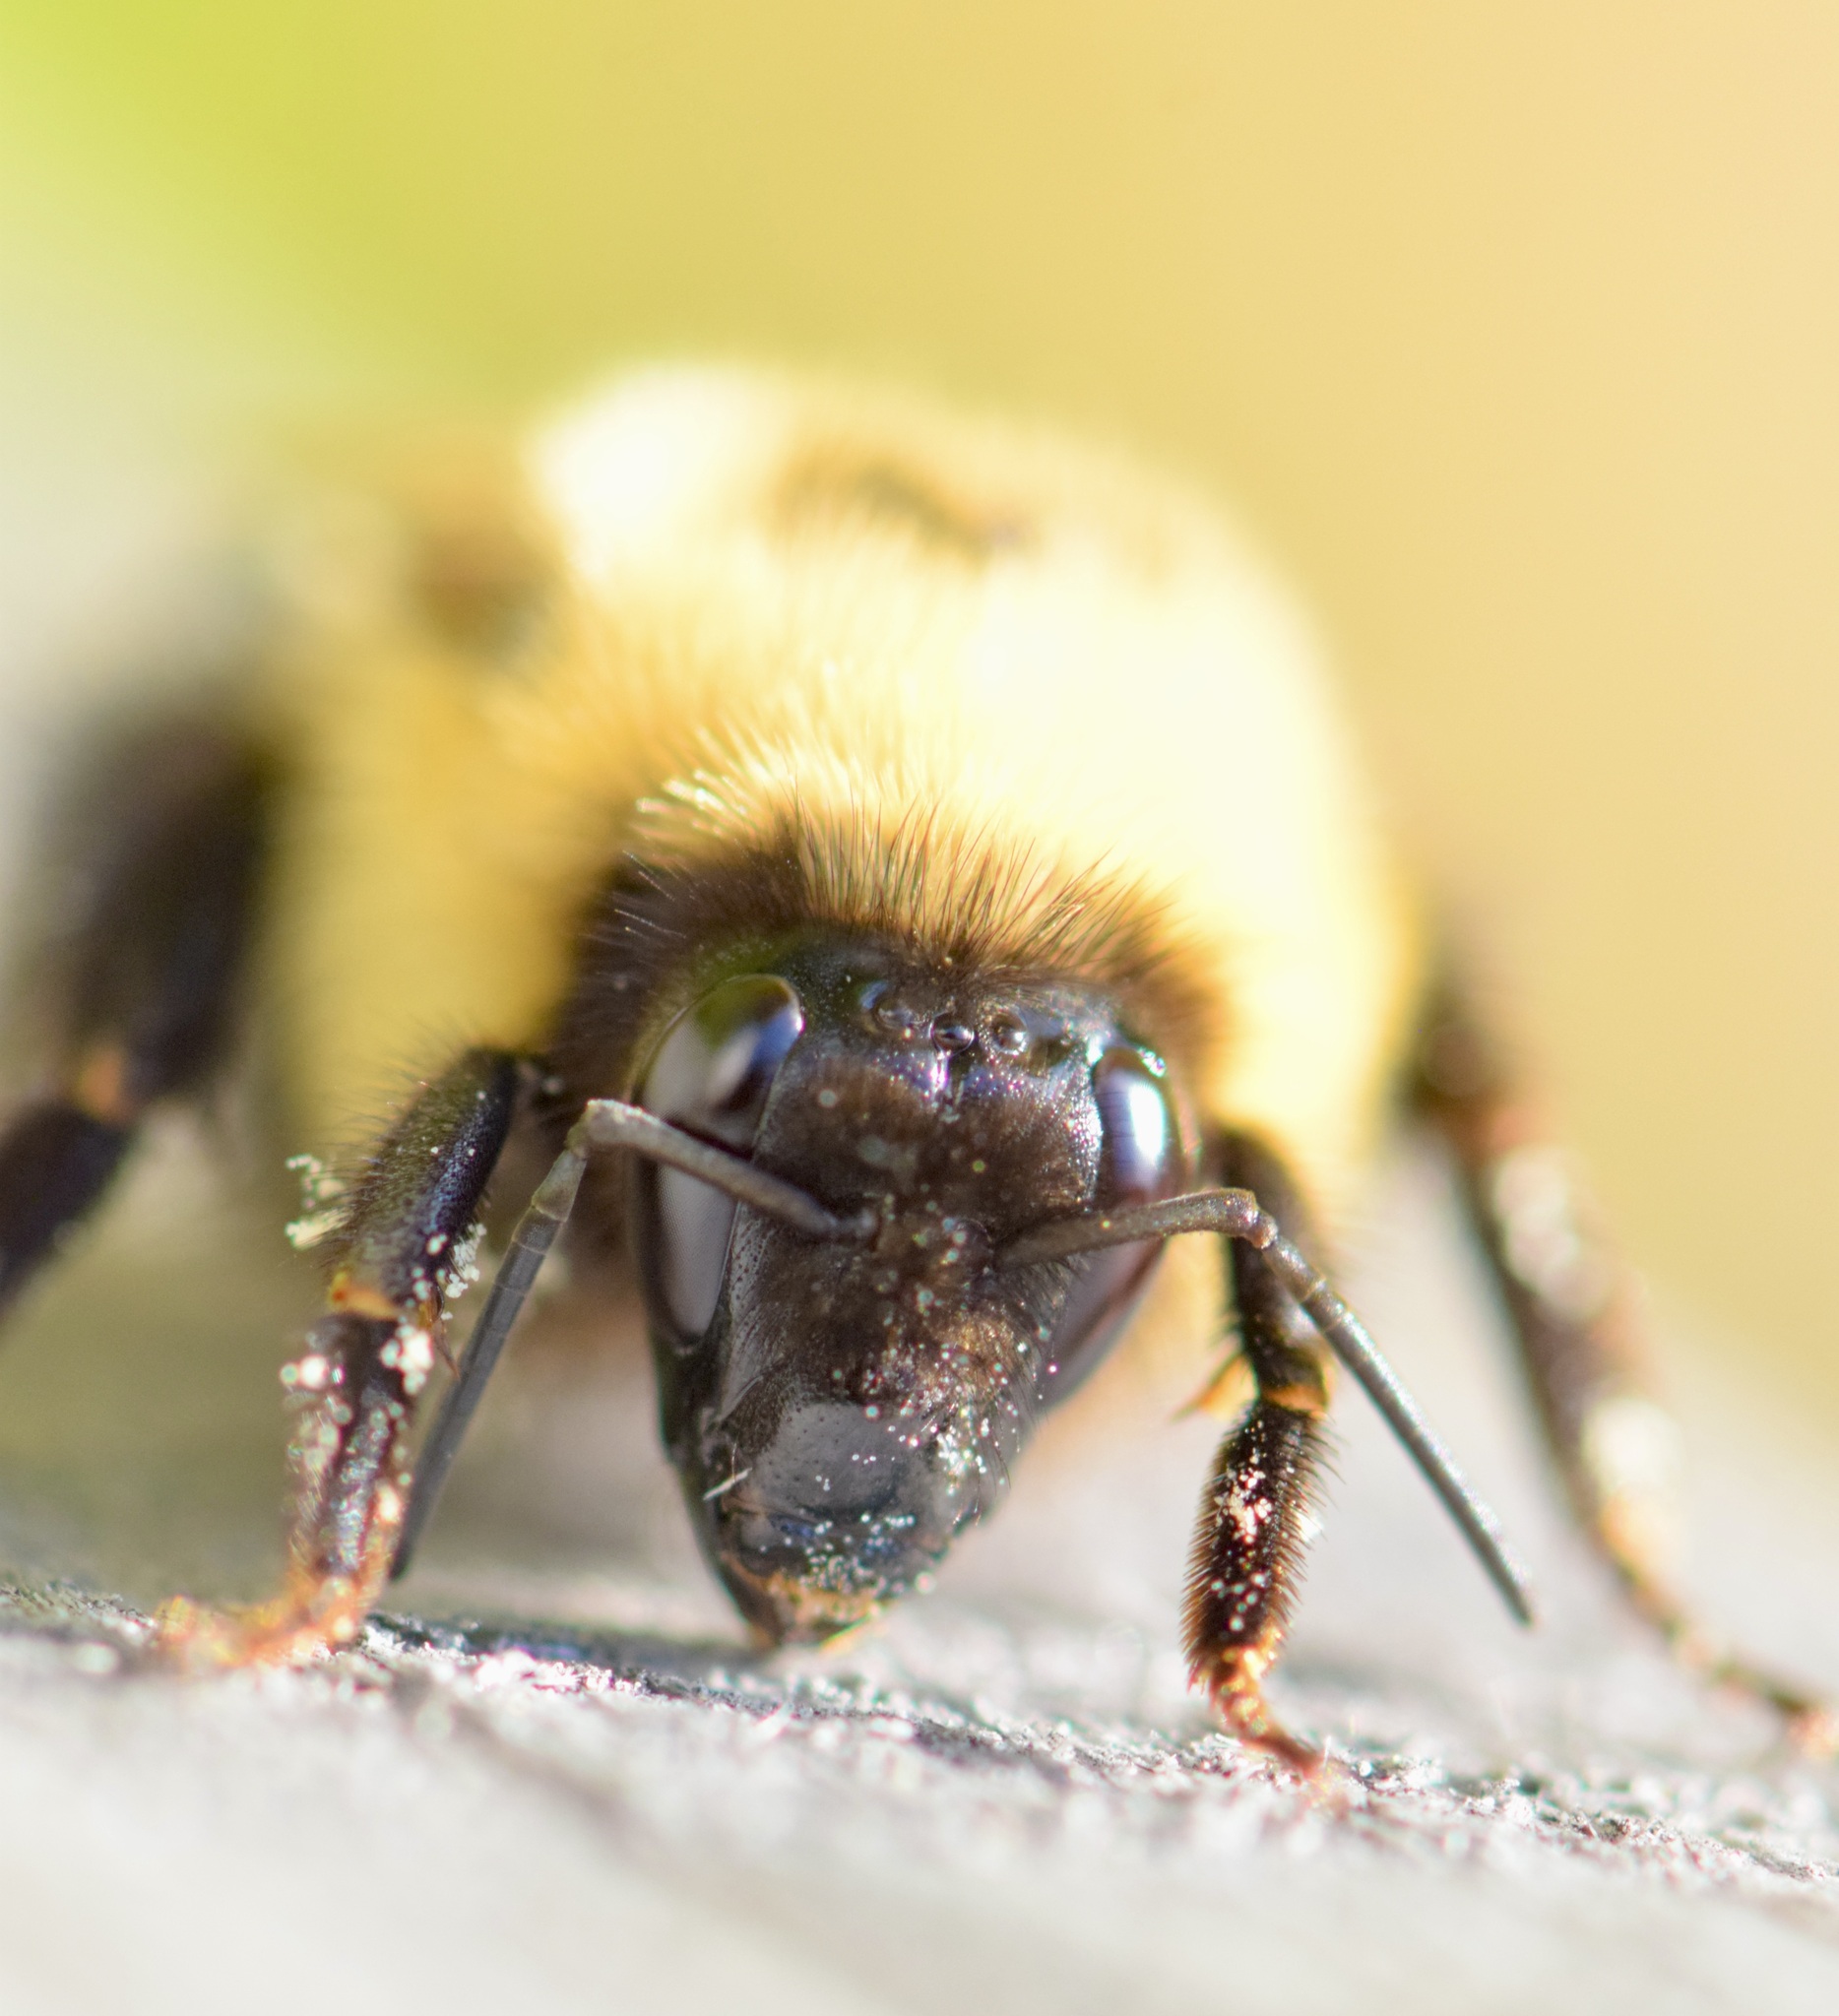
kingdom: Animalia
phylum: Arthropoda
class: Insecta
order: Hymenoptera
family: Apidae
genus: Bombus
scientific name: Bombus bimaculatus
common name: Two-spotted bumble bee
